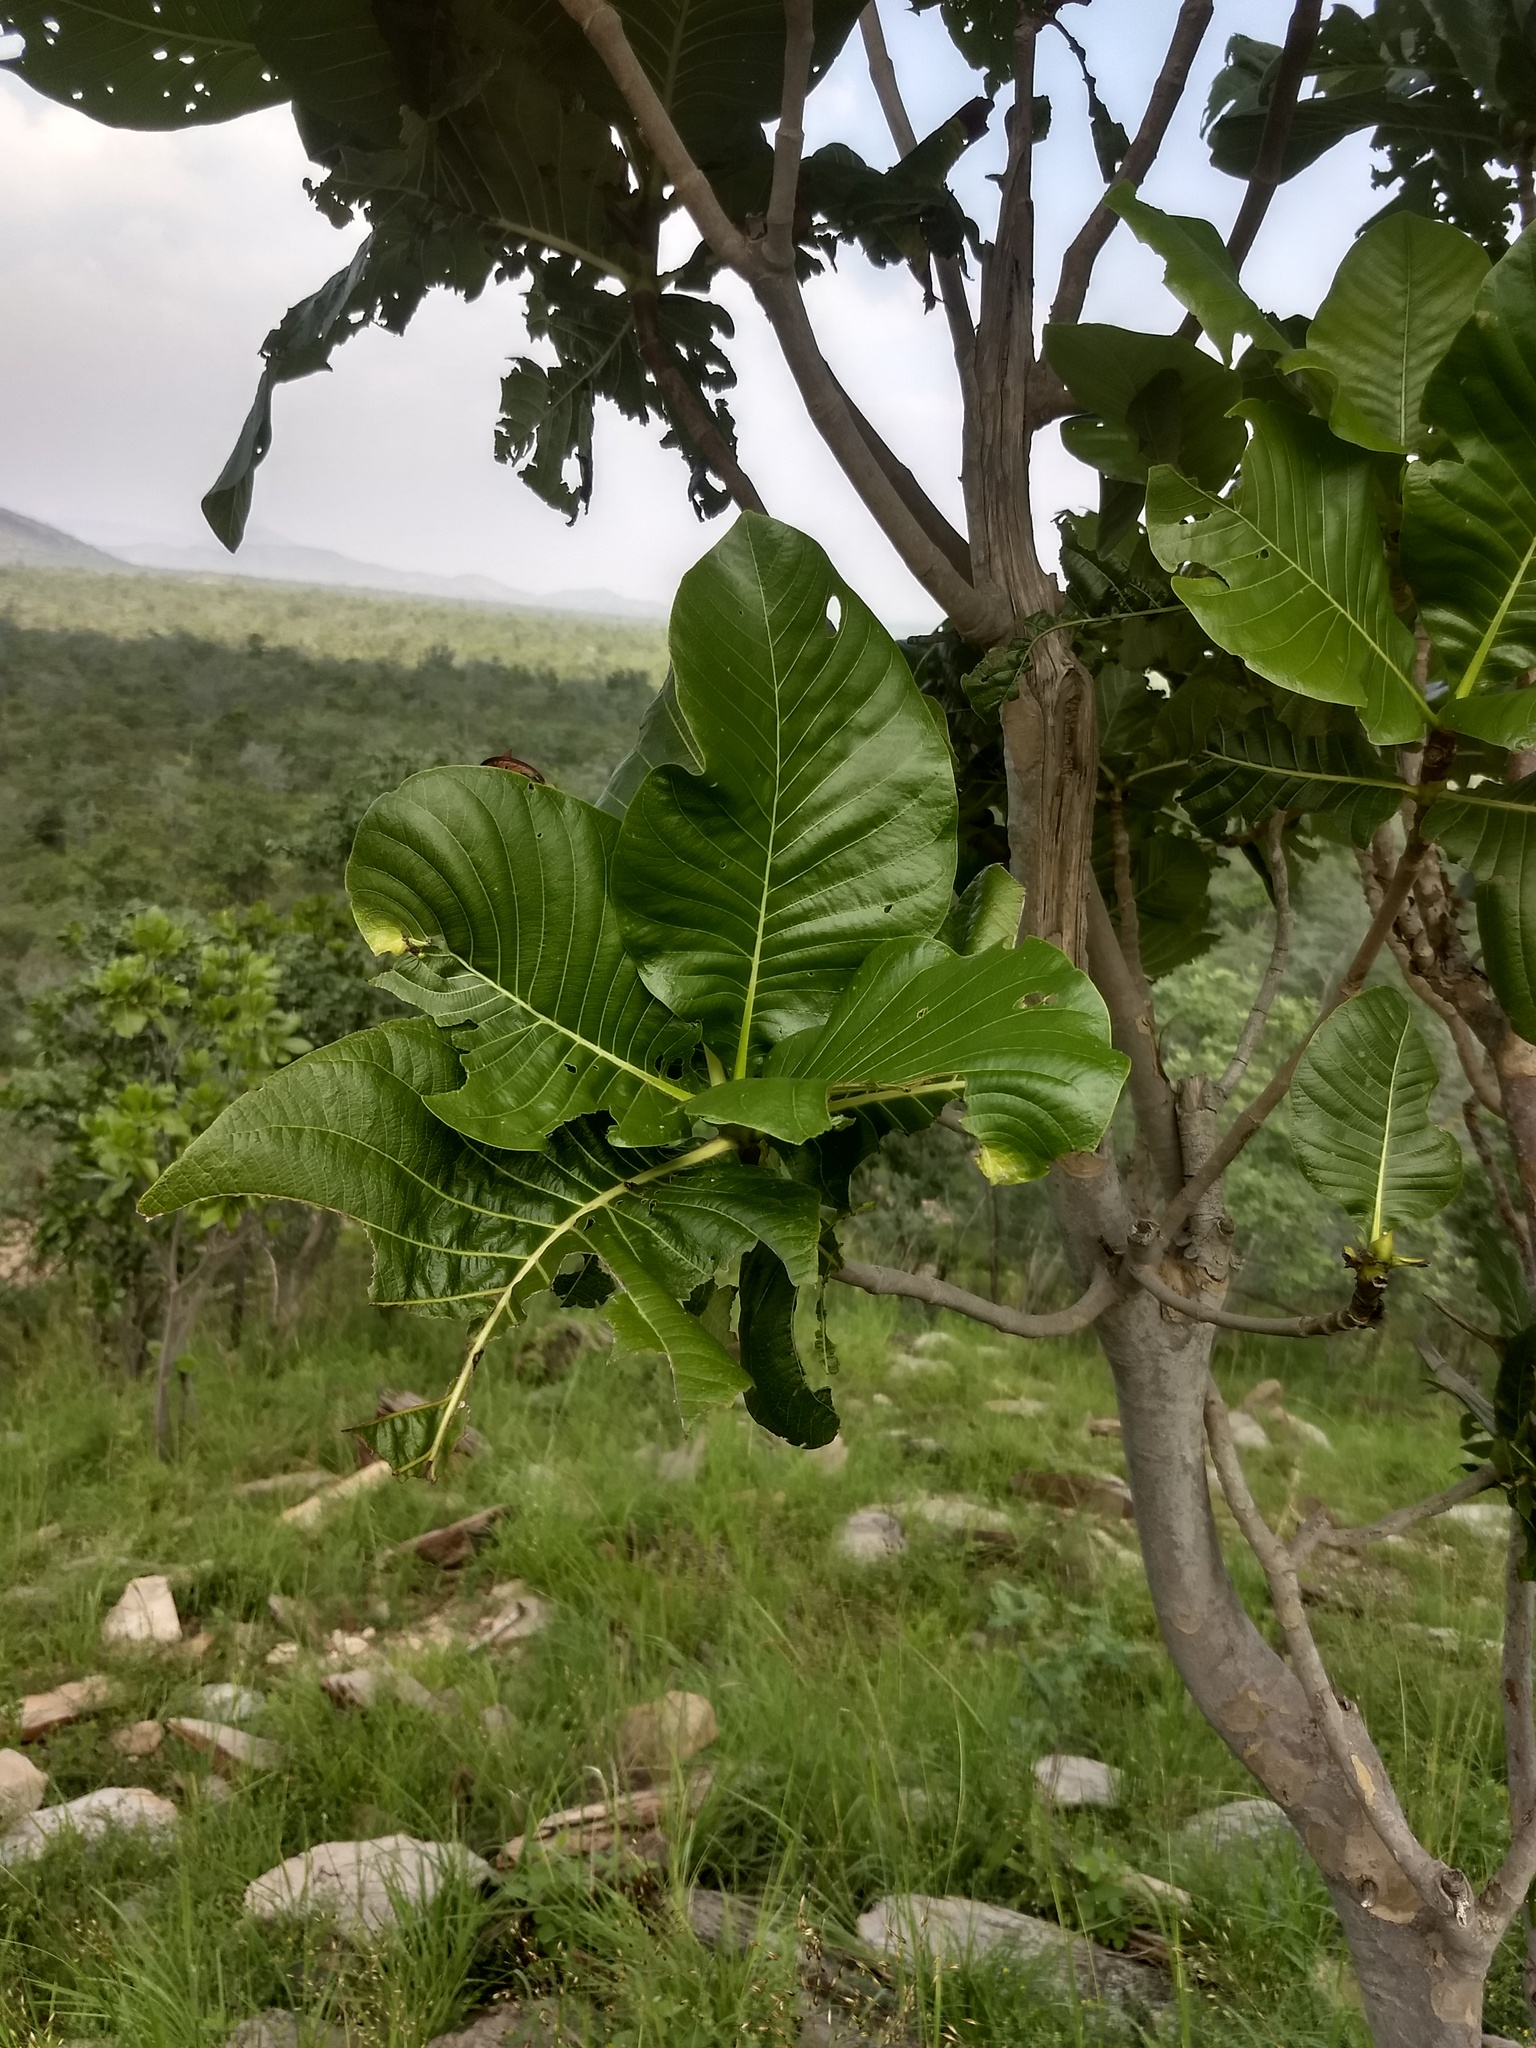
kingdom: Plantae
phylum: Tracheophyta
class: Magnoliopsida
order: Gentianales
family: Rubiaceae
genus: Gardenia
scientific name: Gardenia latifolia
